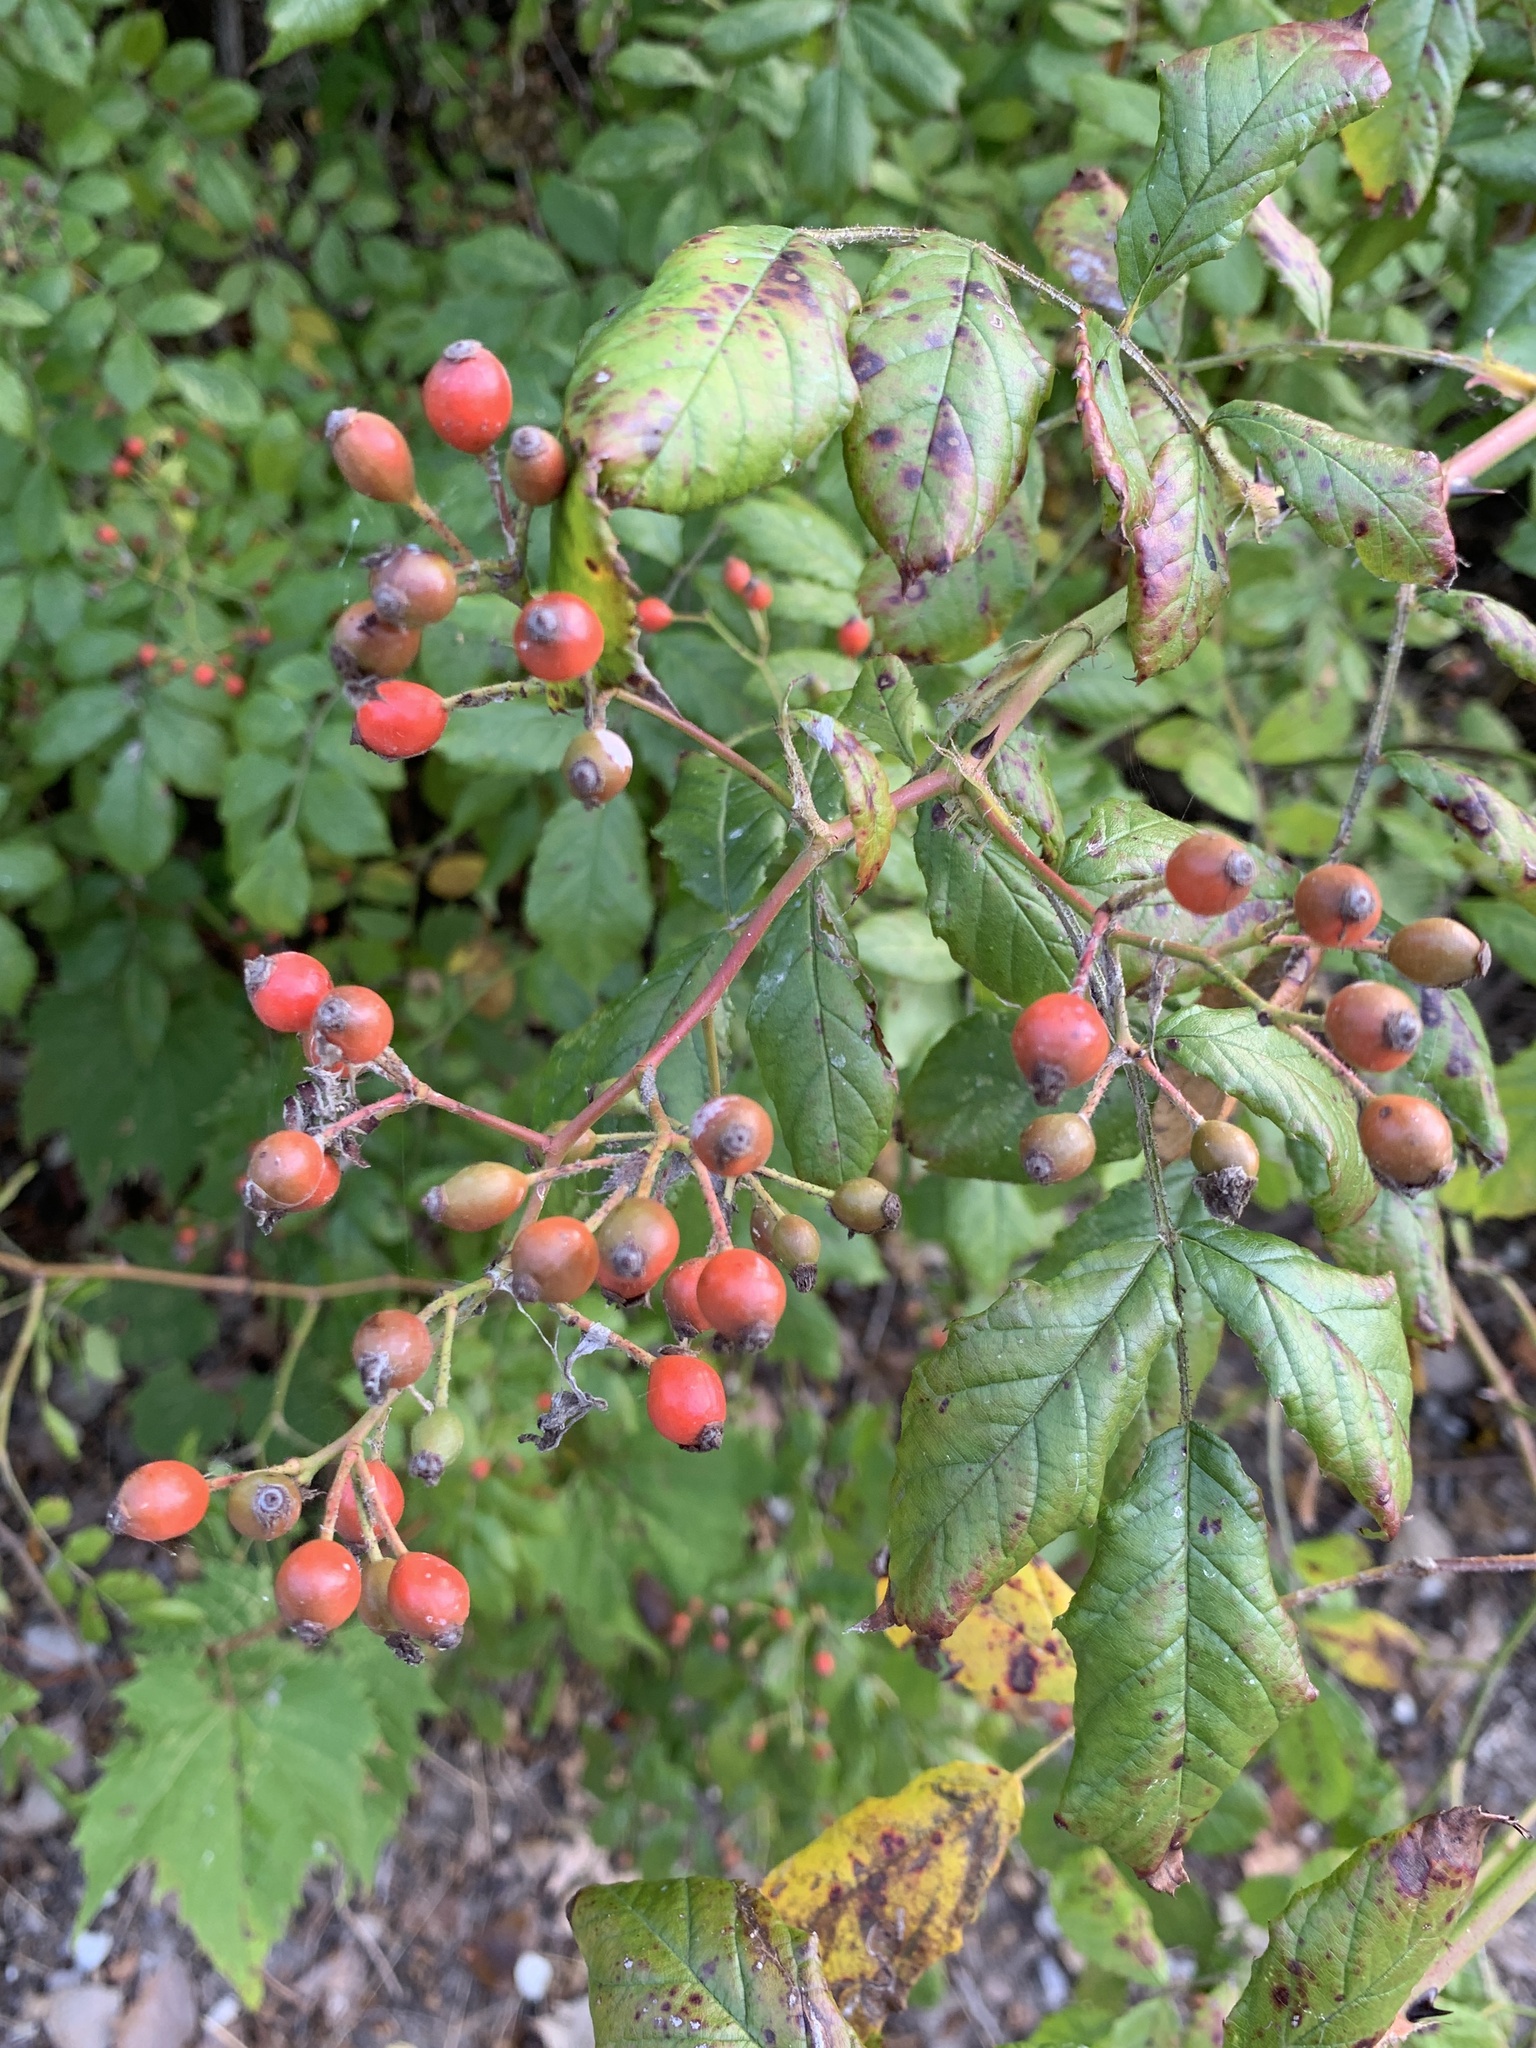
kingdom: Plantae
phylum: Tracheophyta
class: Magnoliopsida
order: Rosales
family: Rosaceae
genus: Rosa
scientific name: Rosa multiflora
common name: Multiflora rose
